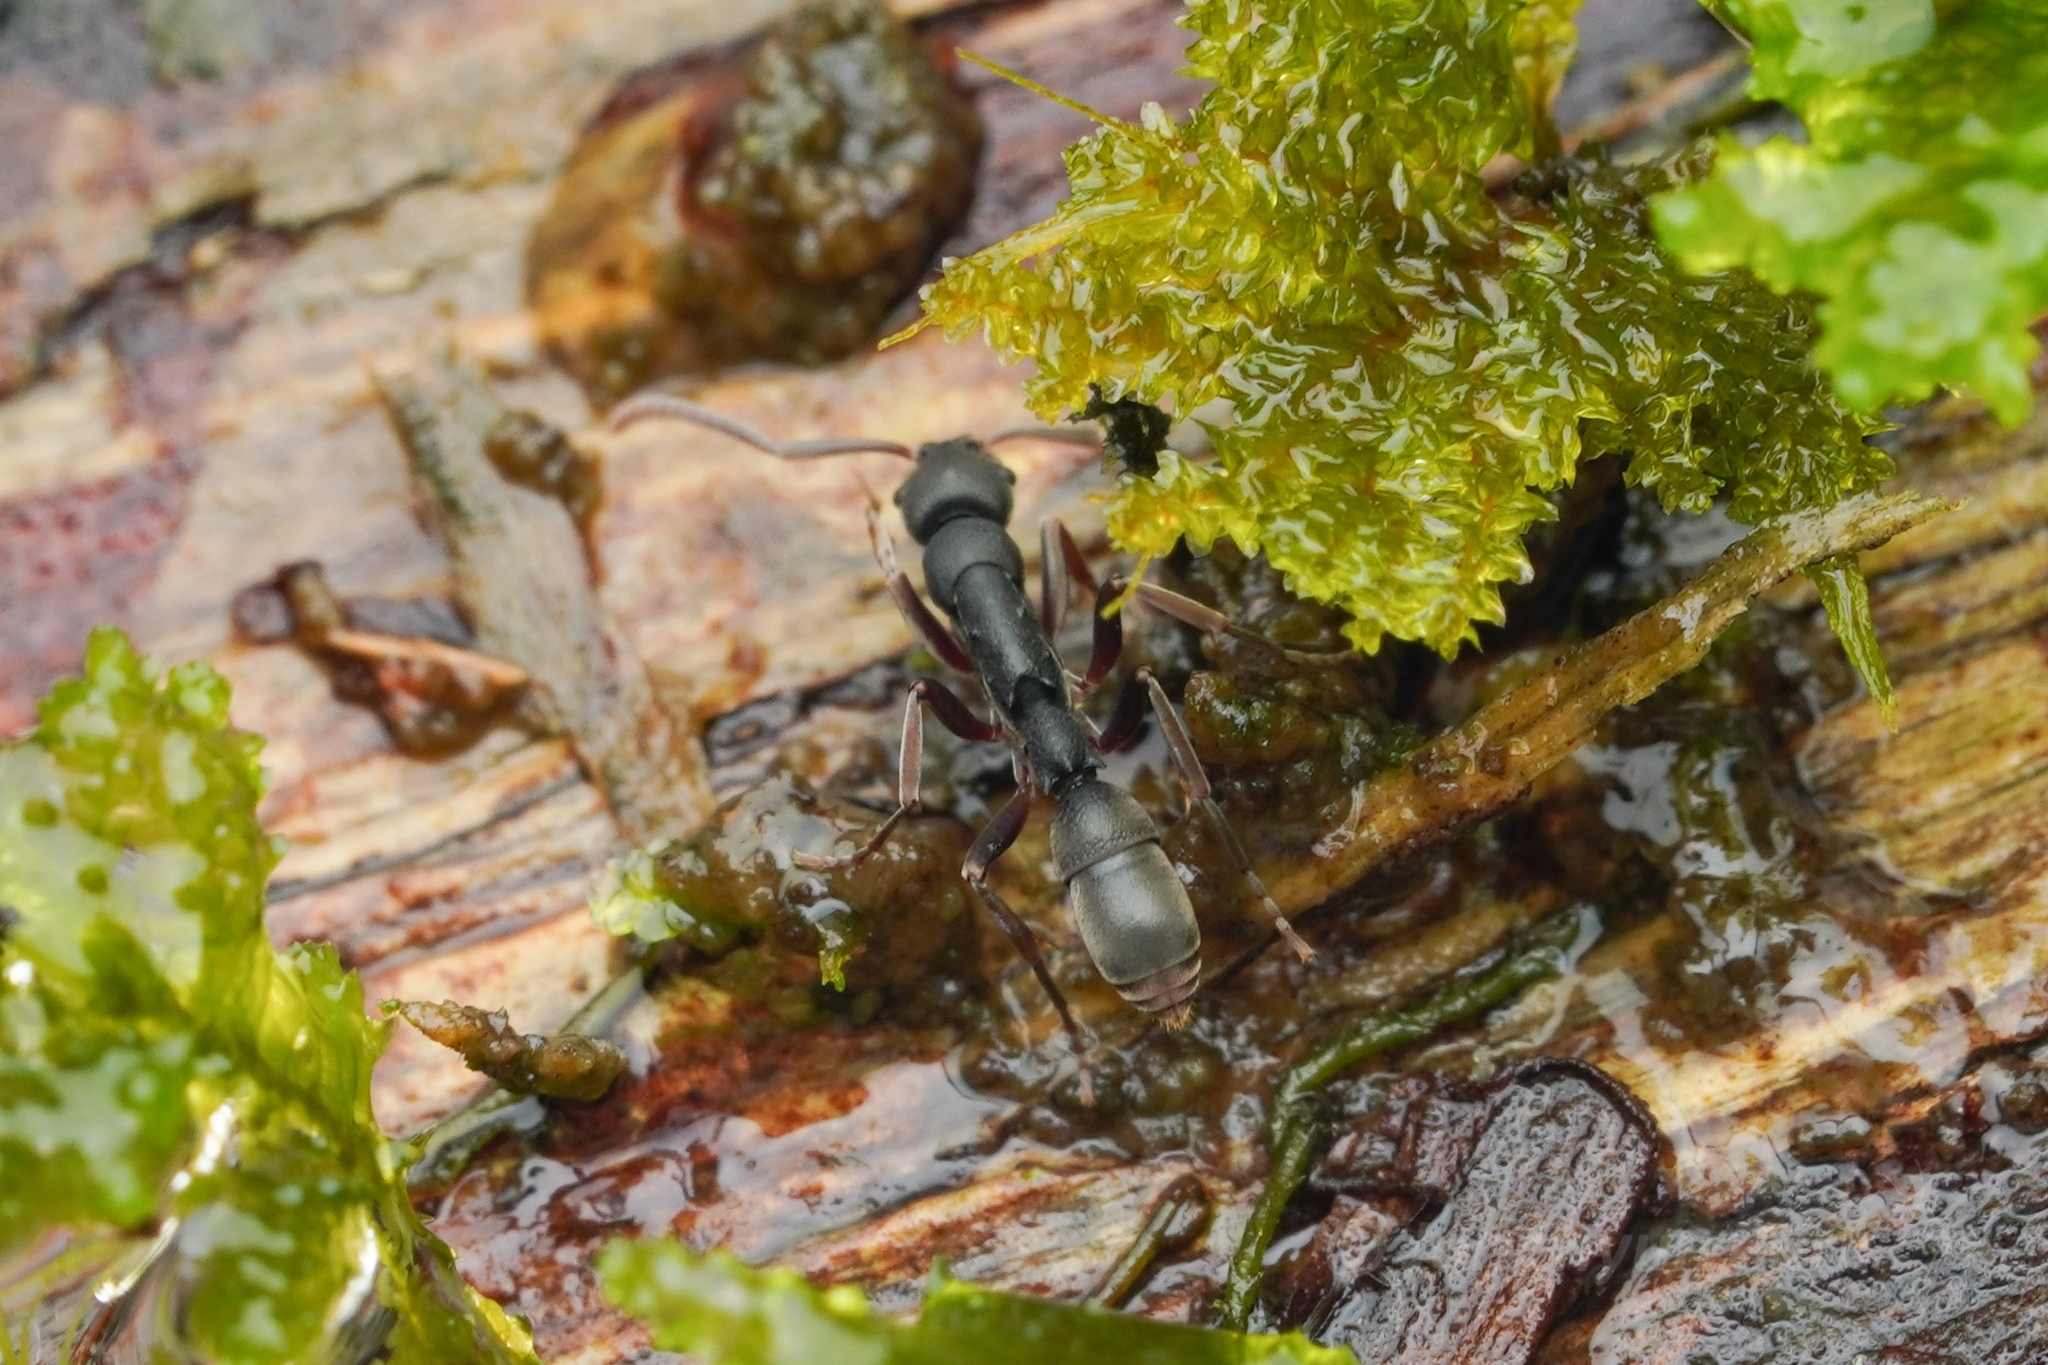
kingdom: Animalia
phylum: Arthropoda
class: Insecta
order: Hymenoptera
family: Formicidae
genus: Platythyrea
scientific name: Platythyrea tricuspidata
